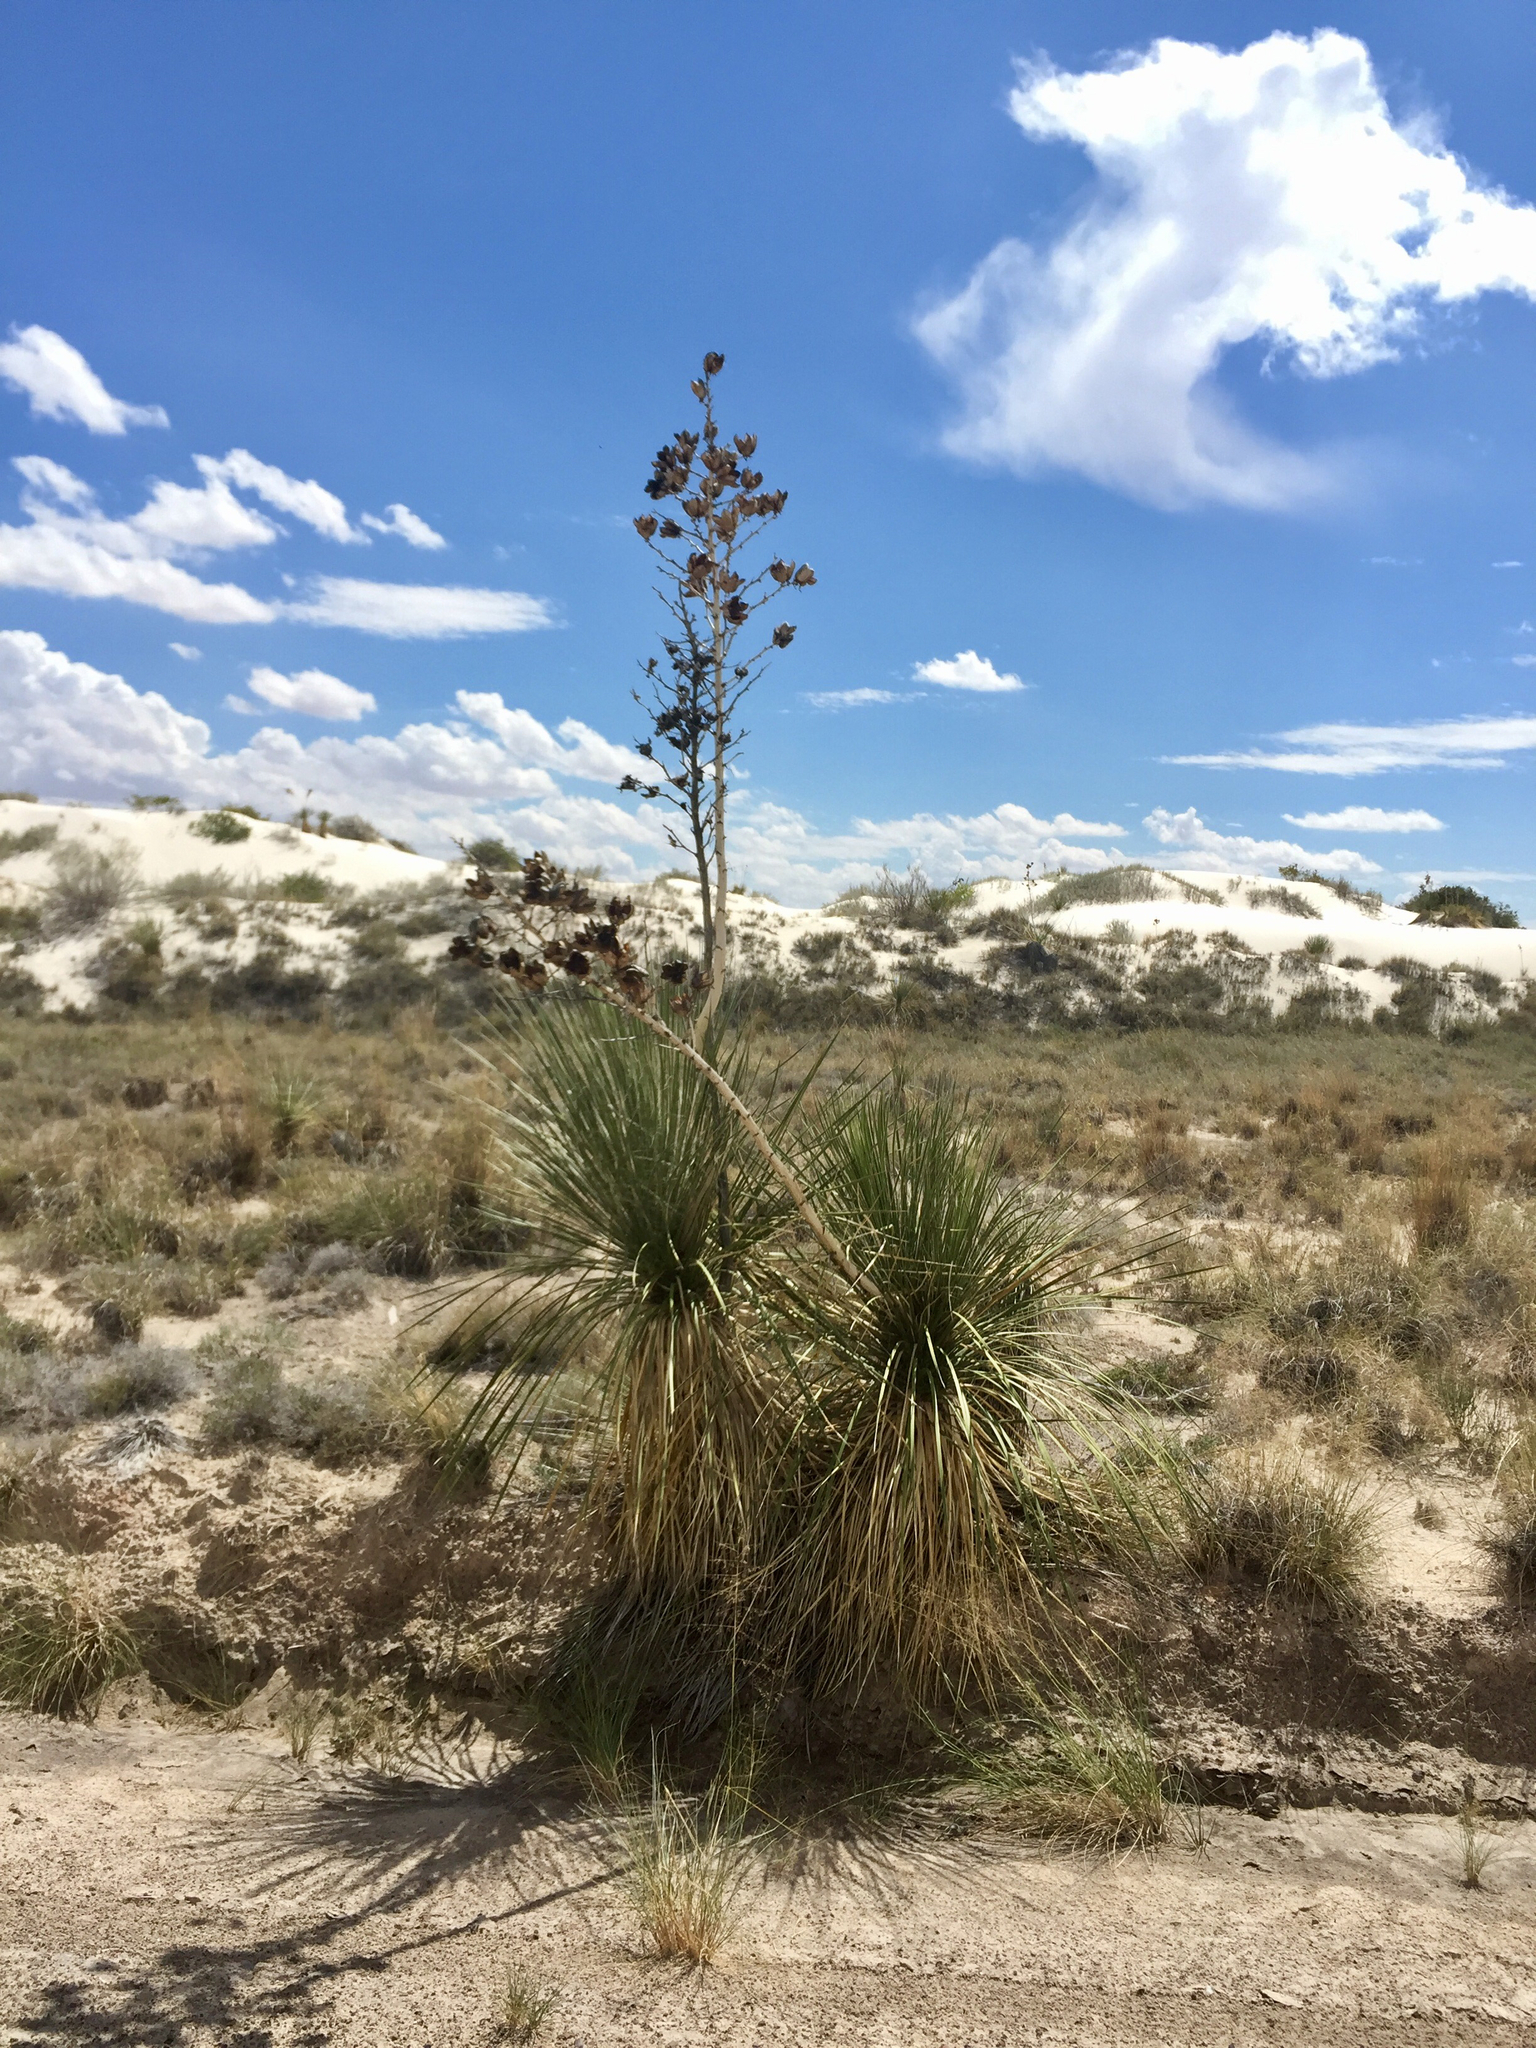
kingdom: Plantae
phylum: Tracheophyta
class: Liliopsida
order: Asparagales
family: Asparagaceae
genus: Yucca
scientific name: Yucca elata
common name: Palmella
